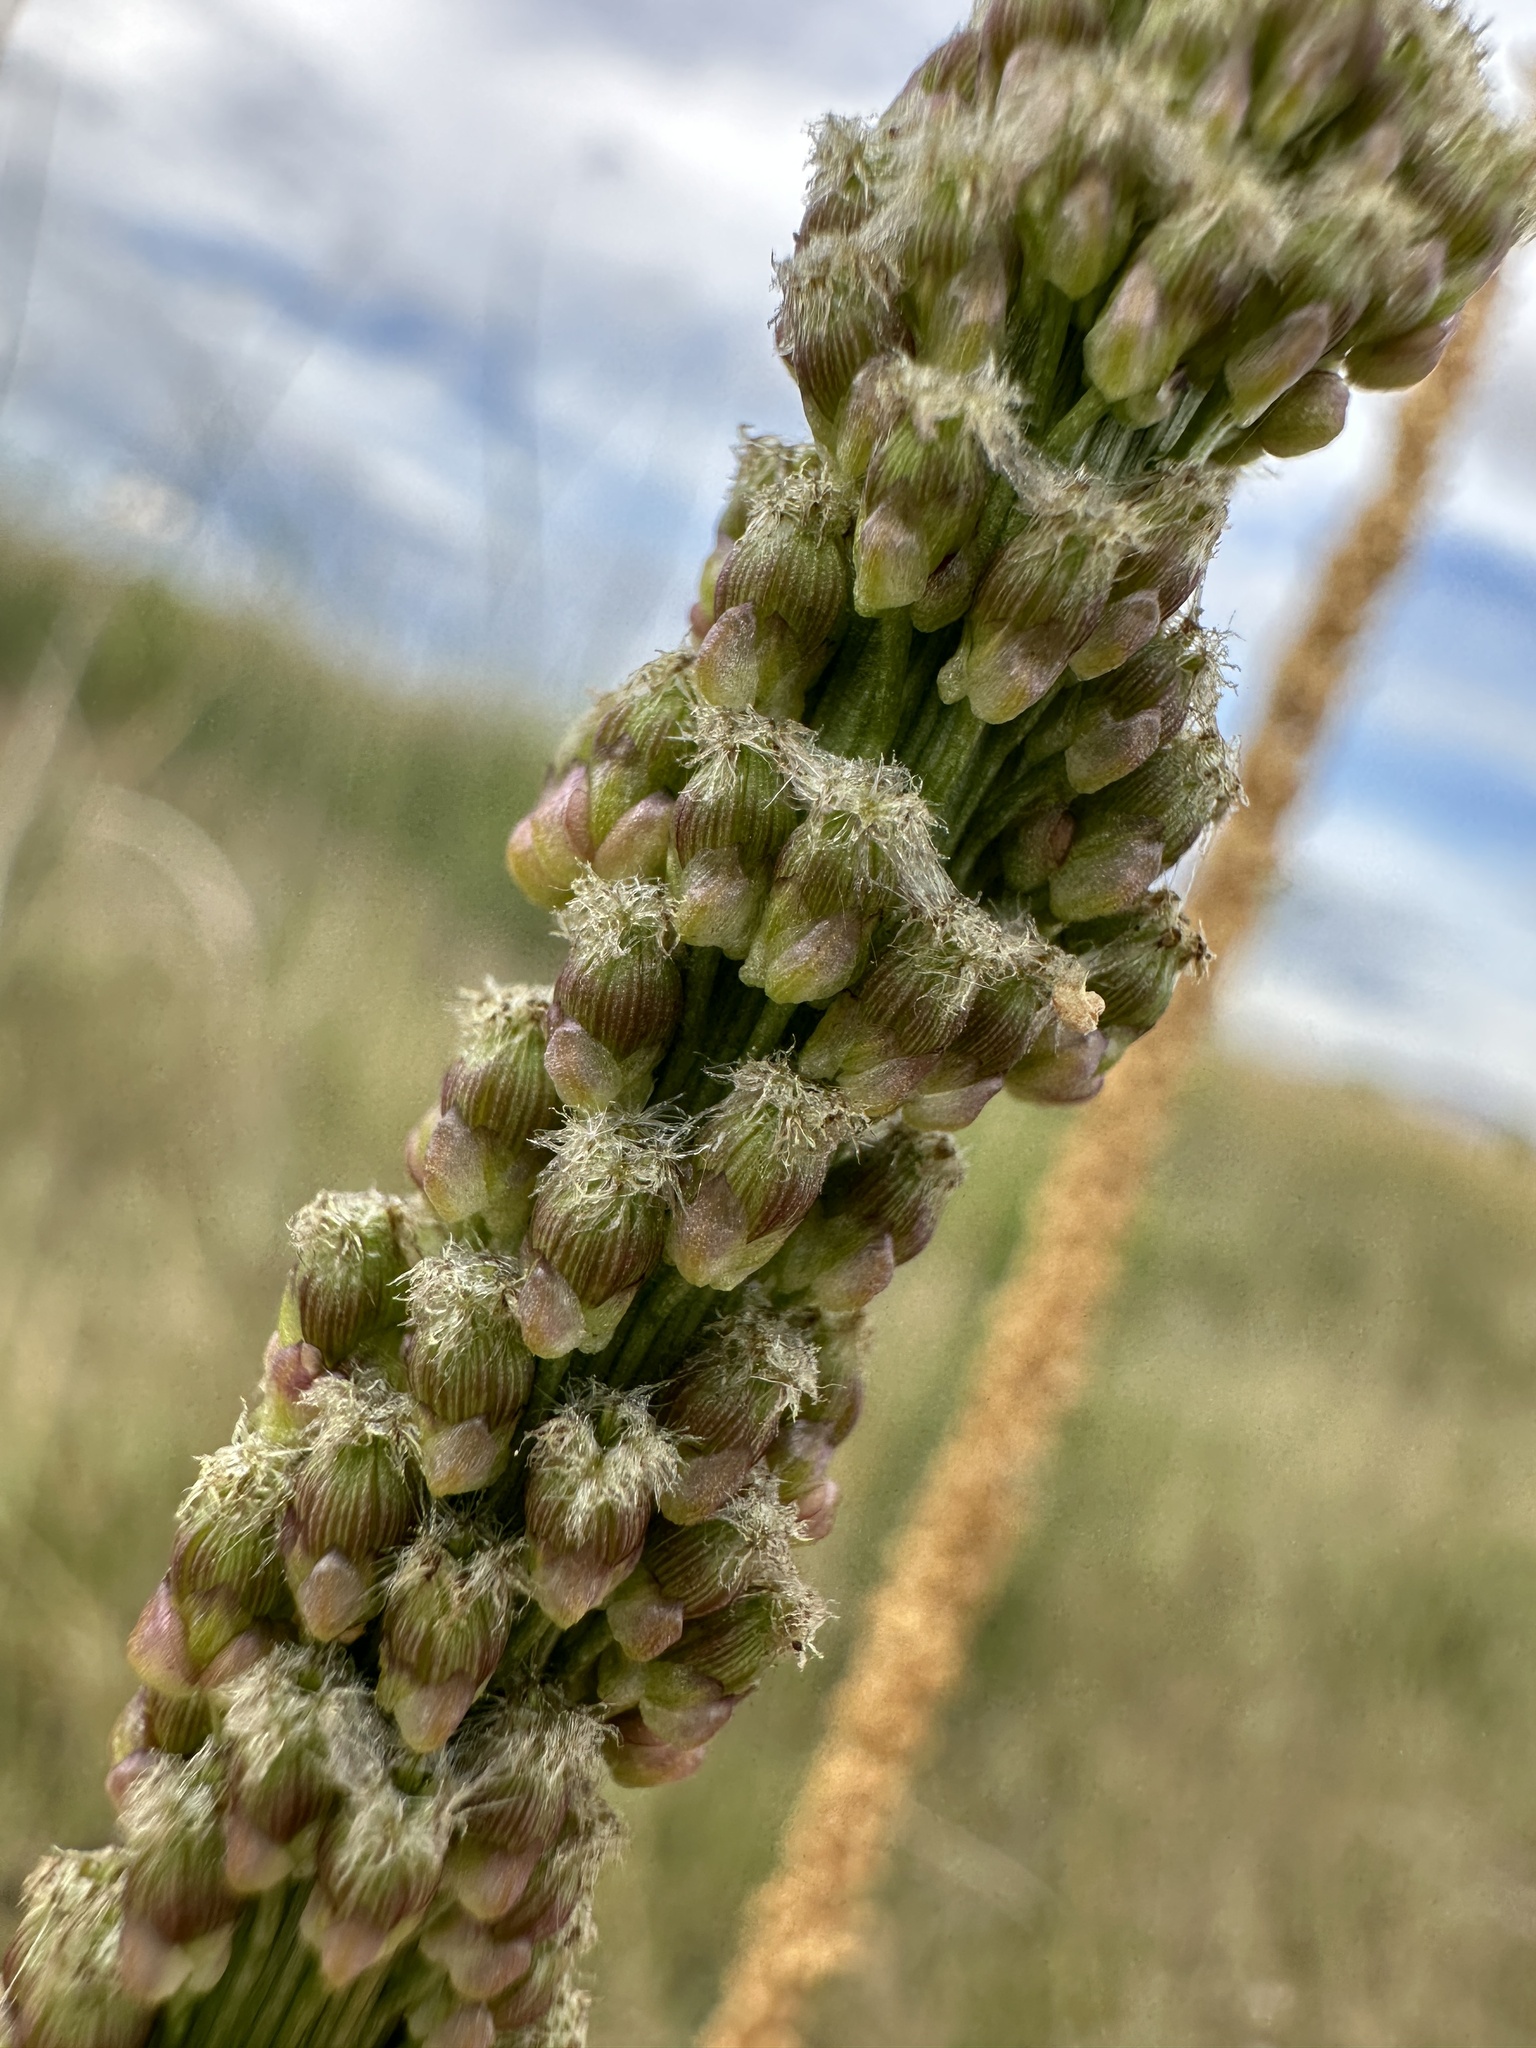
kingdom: Plantae
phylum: Tracheophyta
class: Liliopsida
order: Alismatales
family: Juncaginaceae
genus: Triglochin
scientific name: Triglochin maritima
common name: Sea arrowgrass
